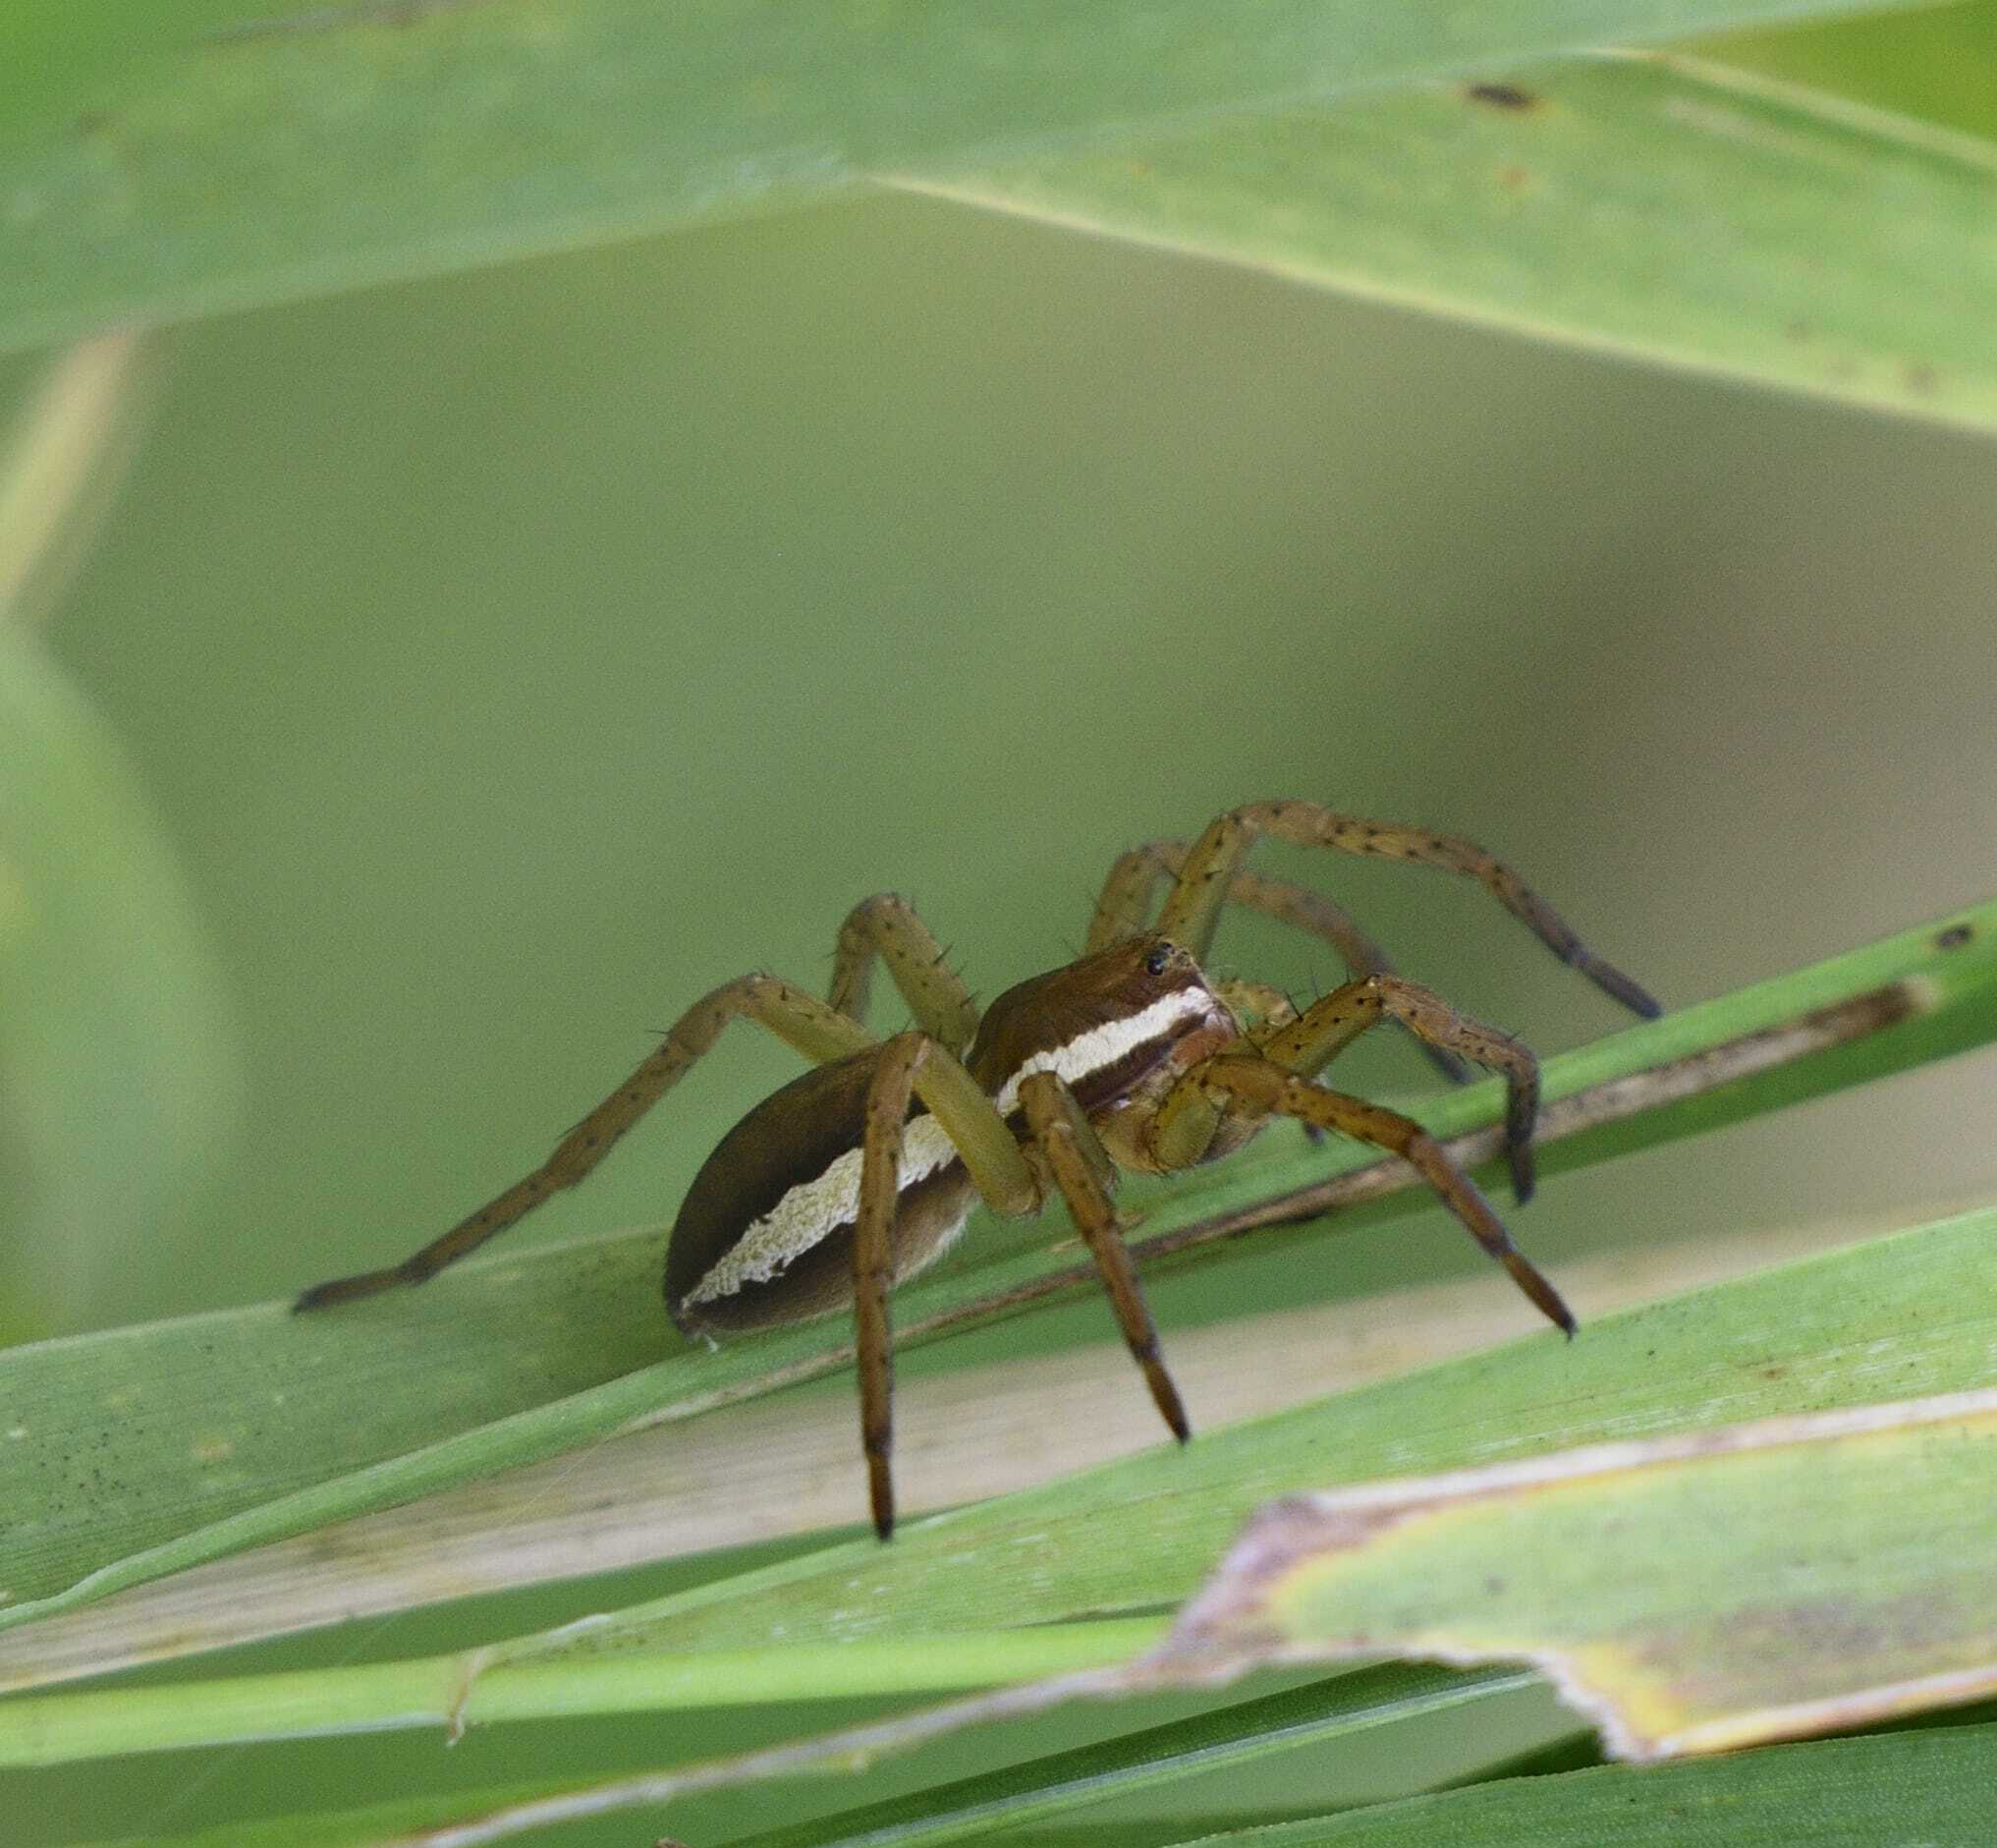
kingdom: Animalia
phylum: Arthropoda
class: Arachnida
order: Araneae
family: Pisauridae
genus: Dolomedes
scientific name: Dolomedes fimbriatus
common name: Raft spider
